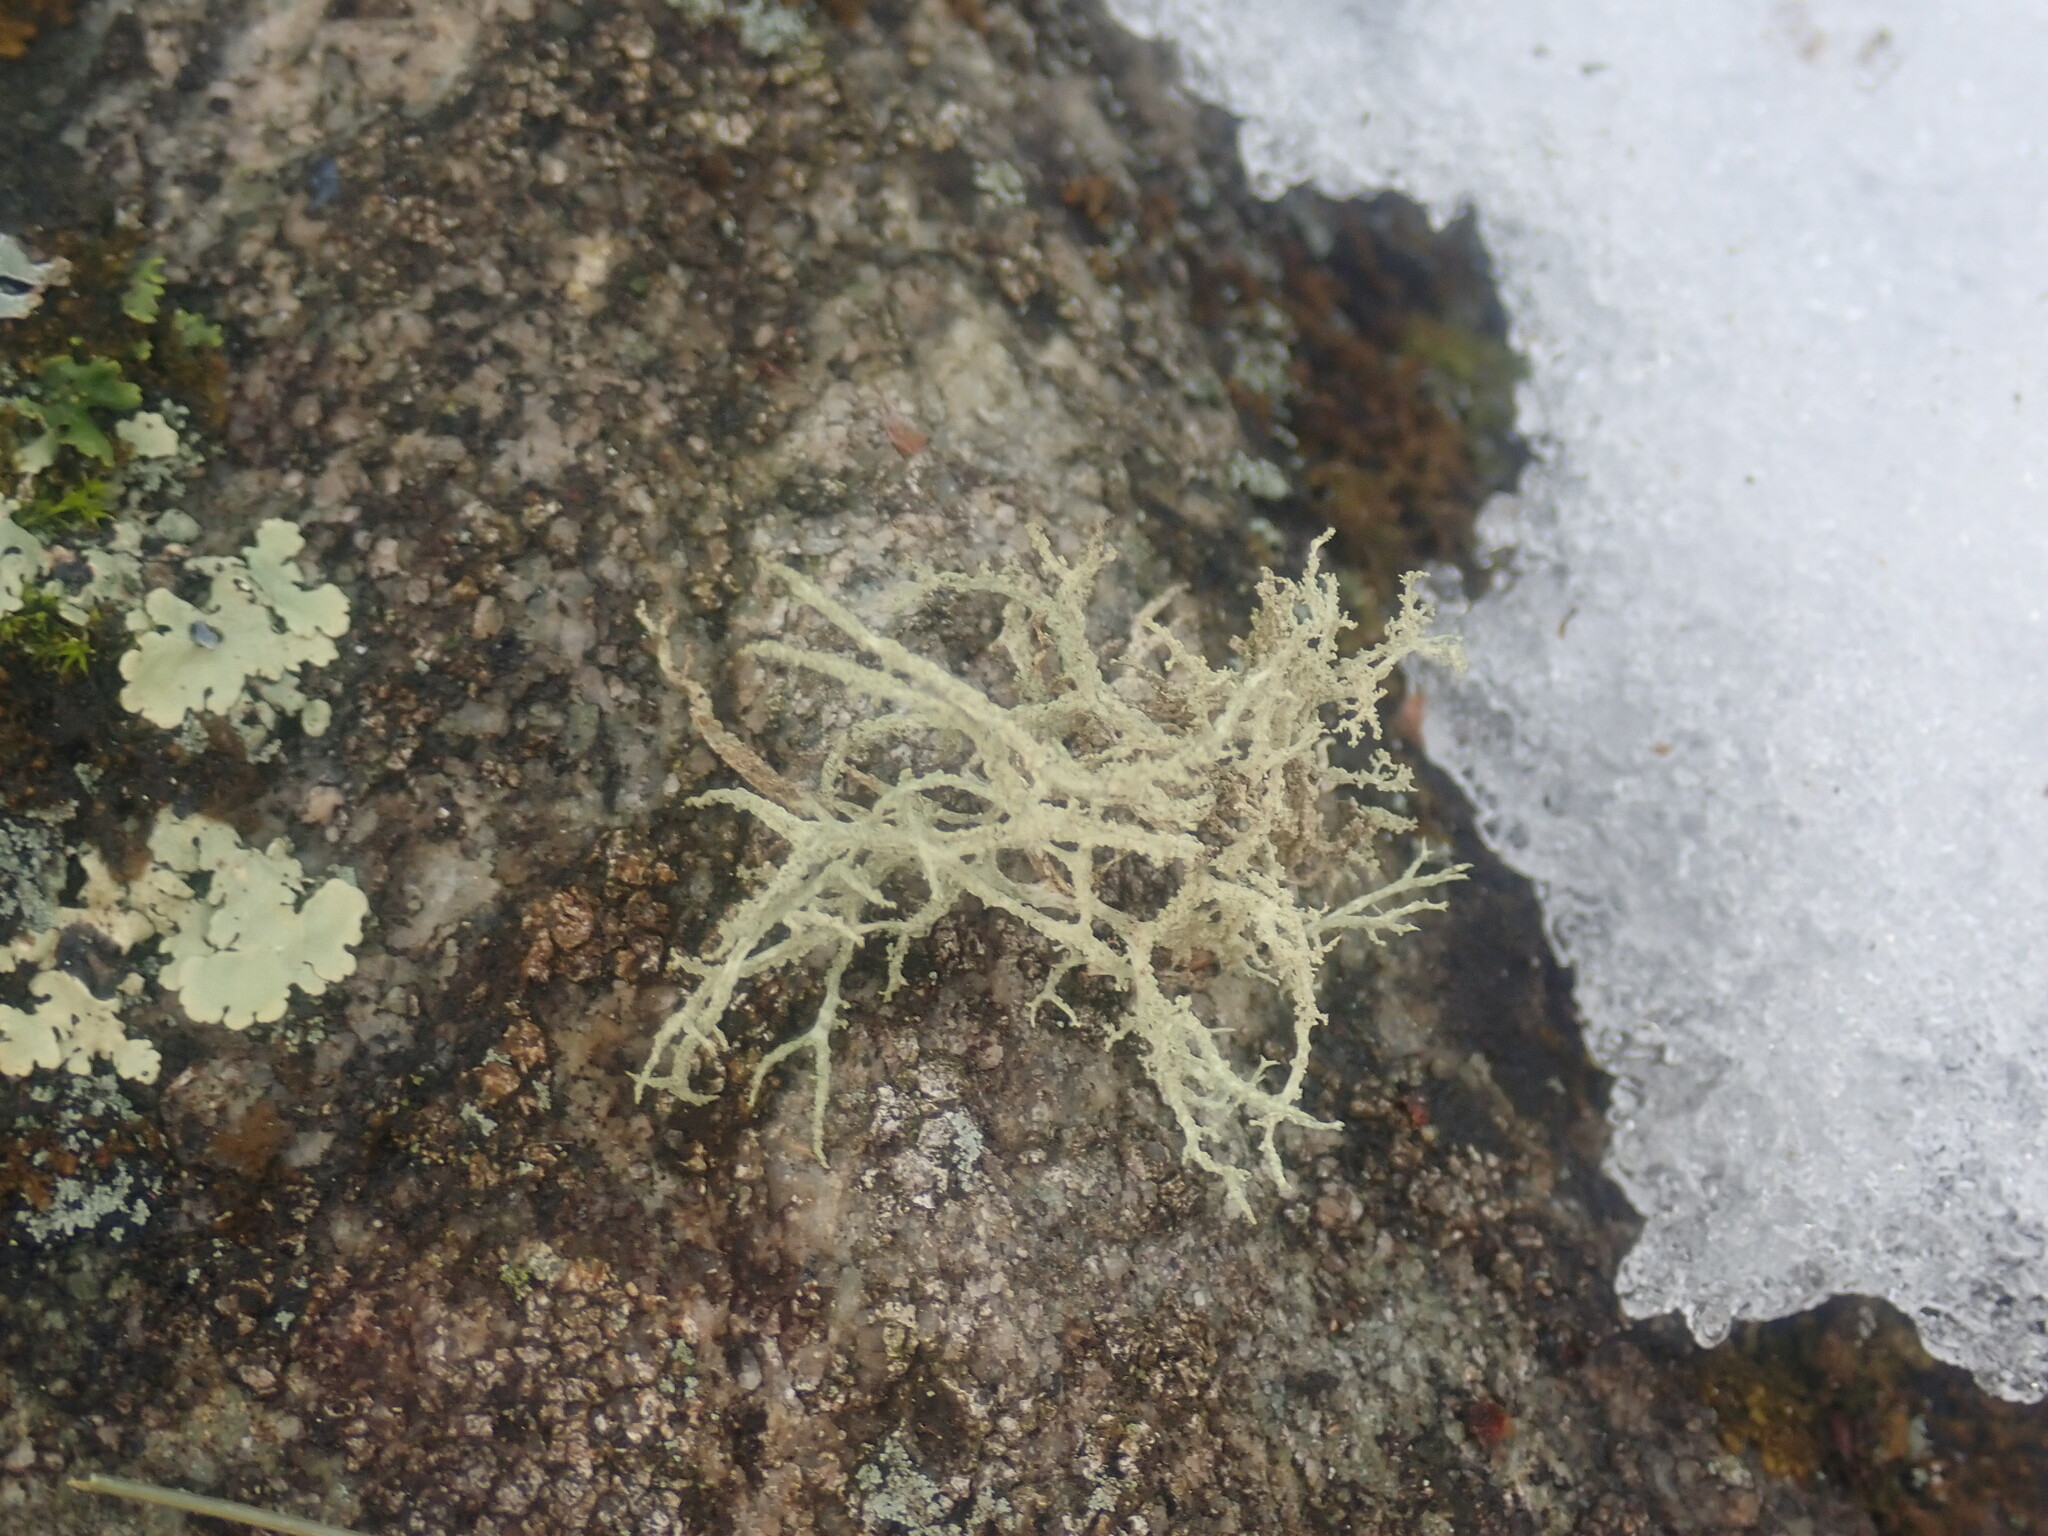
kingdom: Fungi
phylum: Ascomycota
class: Lecanoromycetes
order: Lecanorales
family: Parmeliaceae
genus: Evernia
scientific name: Evernia mesomorpha
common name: Boreal oak moss lichen
